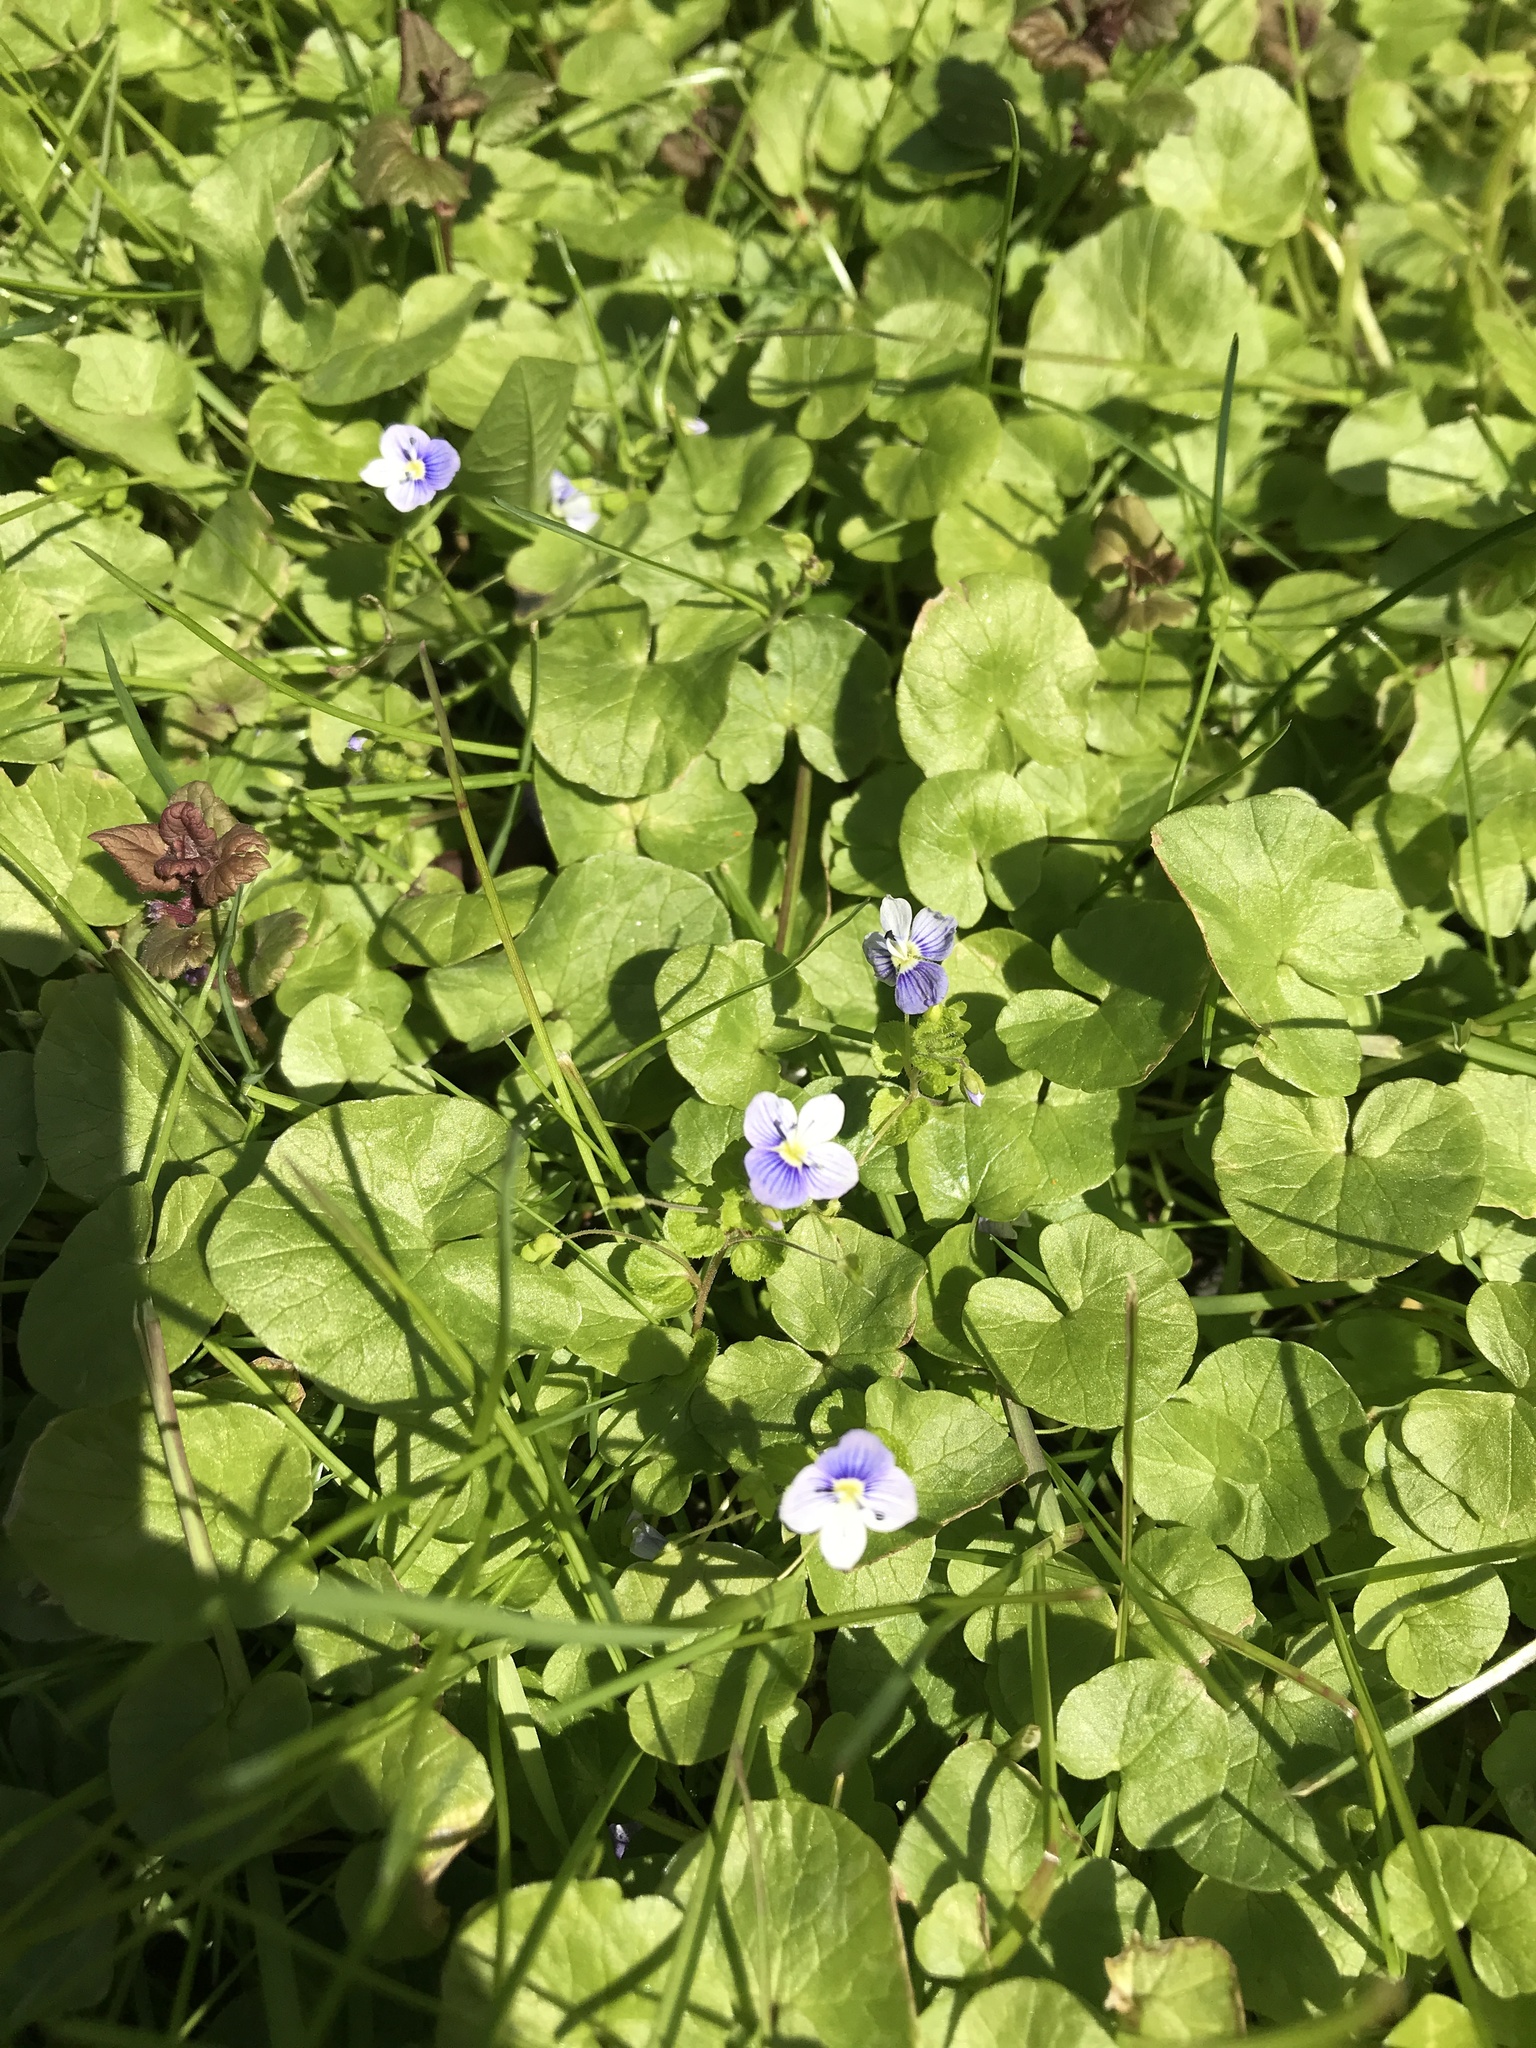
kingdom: Plantae
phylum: Tracheophyta
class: Magnoliopsida
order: Lamiales
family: Plantaginaceae
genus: Veronica
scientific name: Veronica filiformis
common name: Slender speedwell
